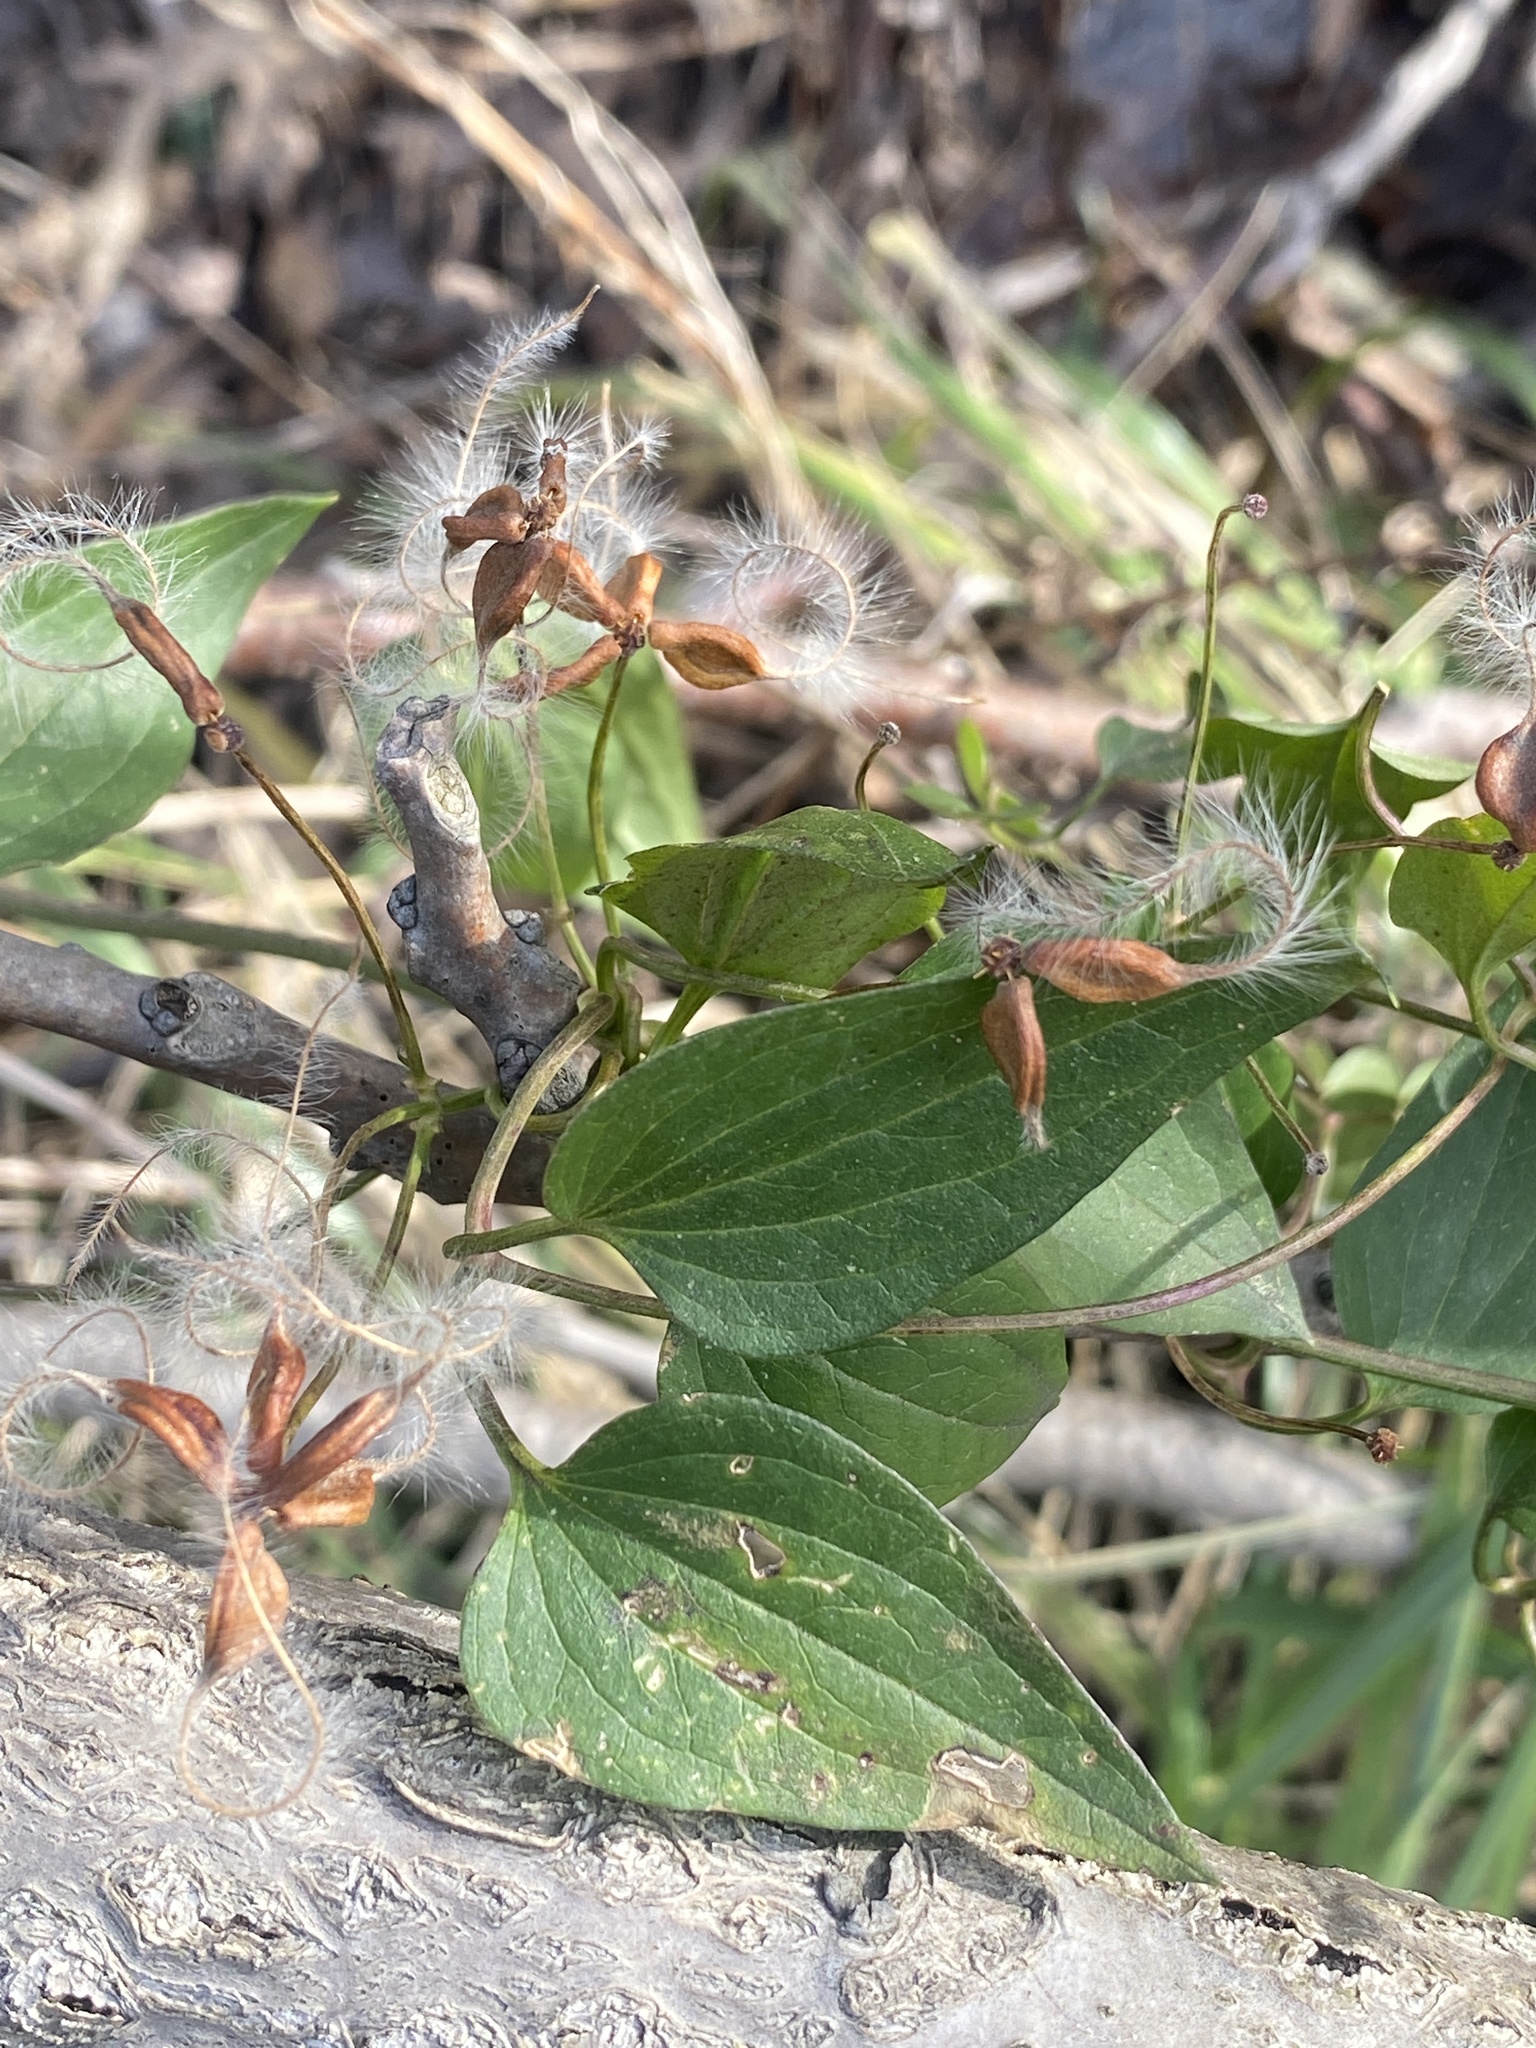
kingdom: Plantae
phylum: Tracheophyta
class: Magnoliopsida
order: Ranunculales
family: Ranunculaceae
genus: Clematis
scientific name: Clematis terniflora
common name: Sweet autumn clematis
